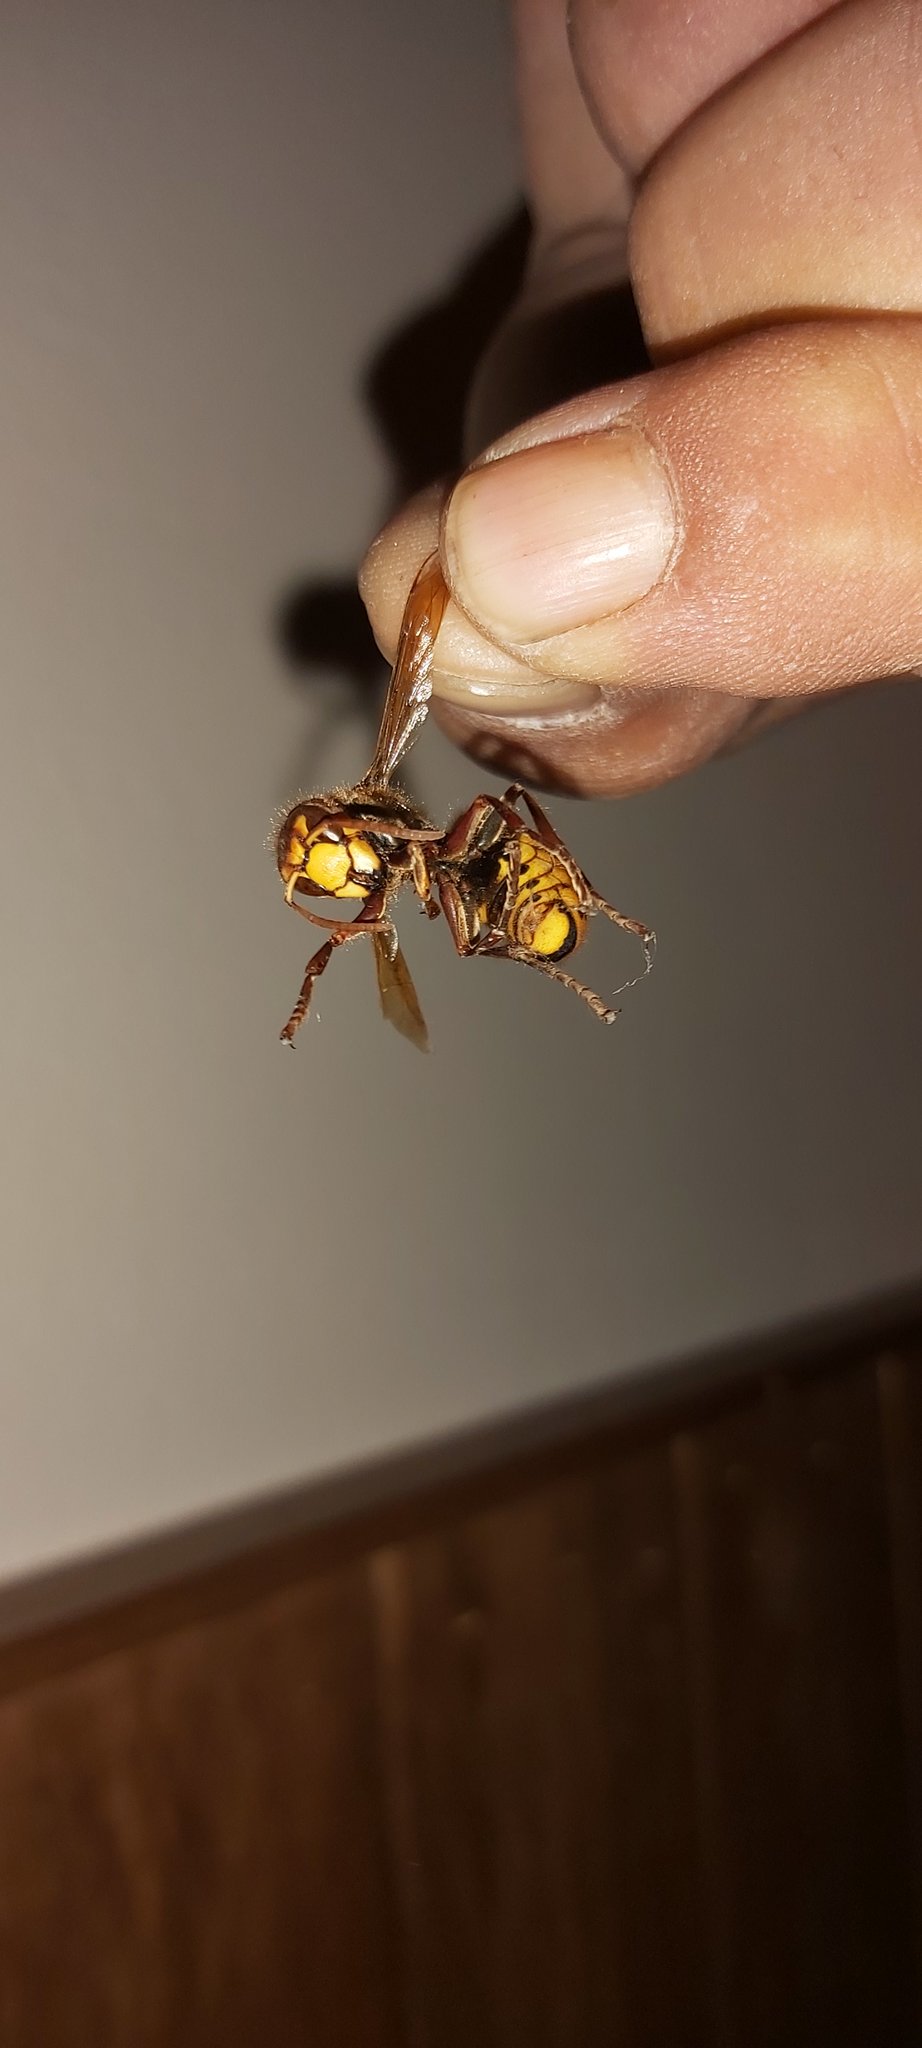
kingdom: Animalia
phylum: Arthropoda
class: Insecta
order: Hymenoptera
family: Vespidae
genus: Vespa
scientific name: Vespa crabro
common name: Hornet
